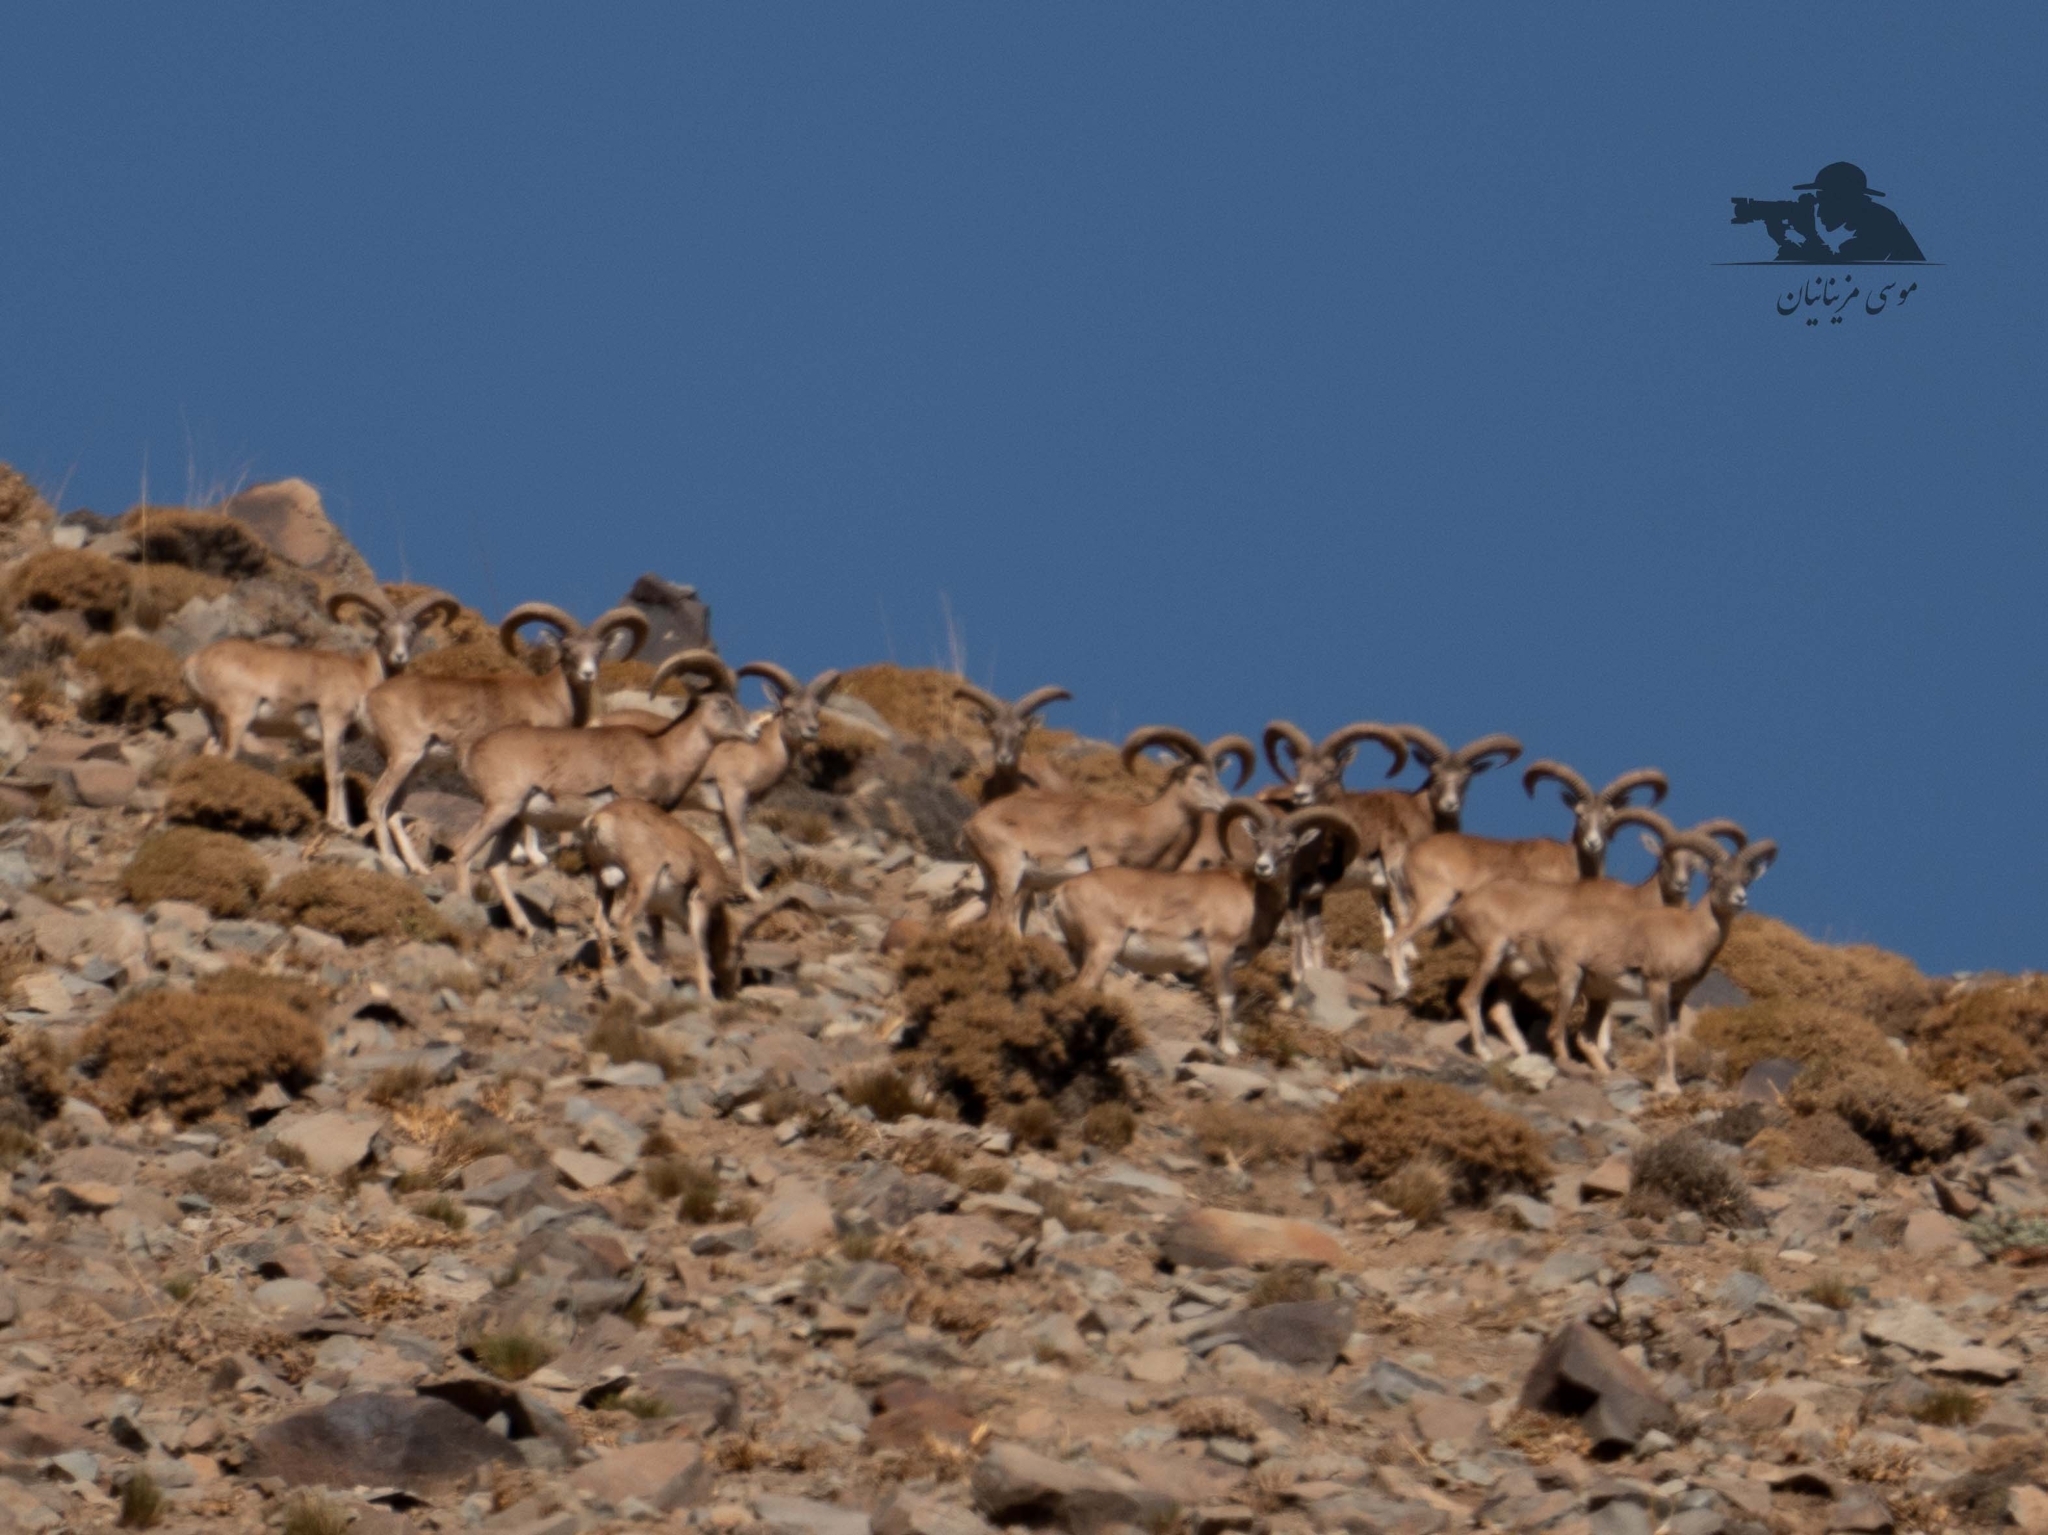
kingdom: Animalia
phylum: Chordata
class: Mammalia
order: Artiodactyla
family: Bovidae
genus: Ovis
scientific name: Ovis gmelini
